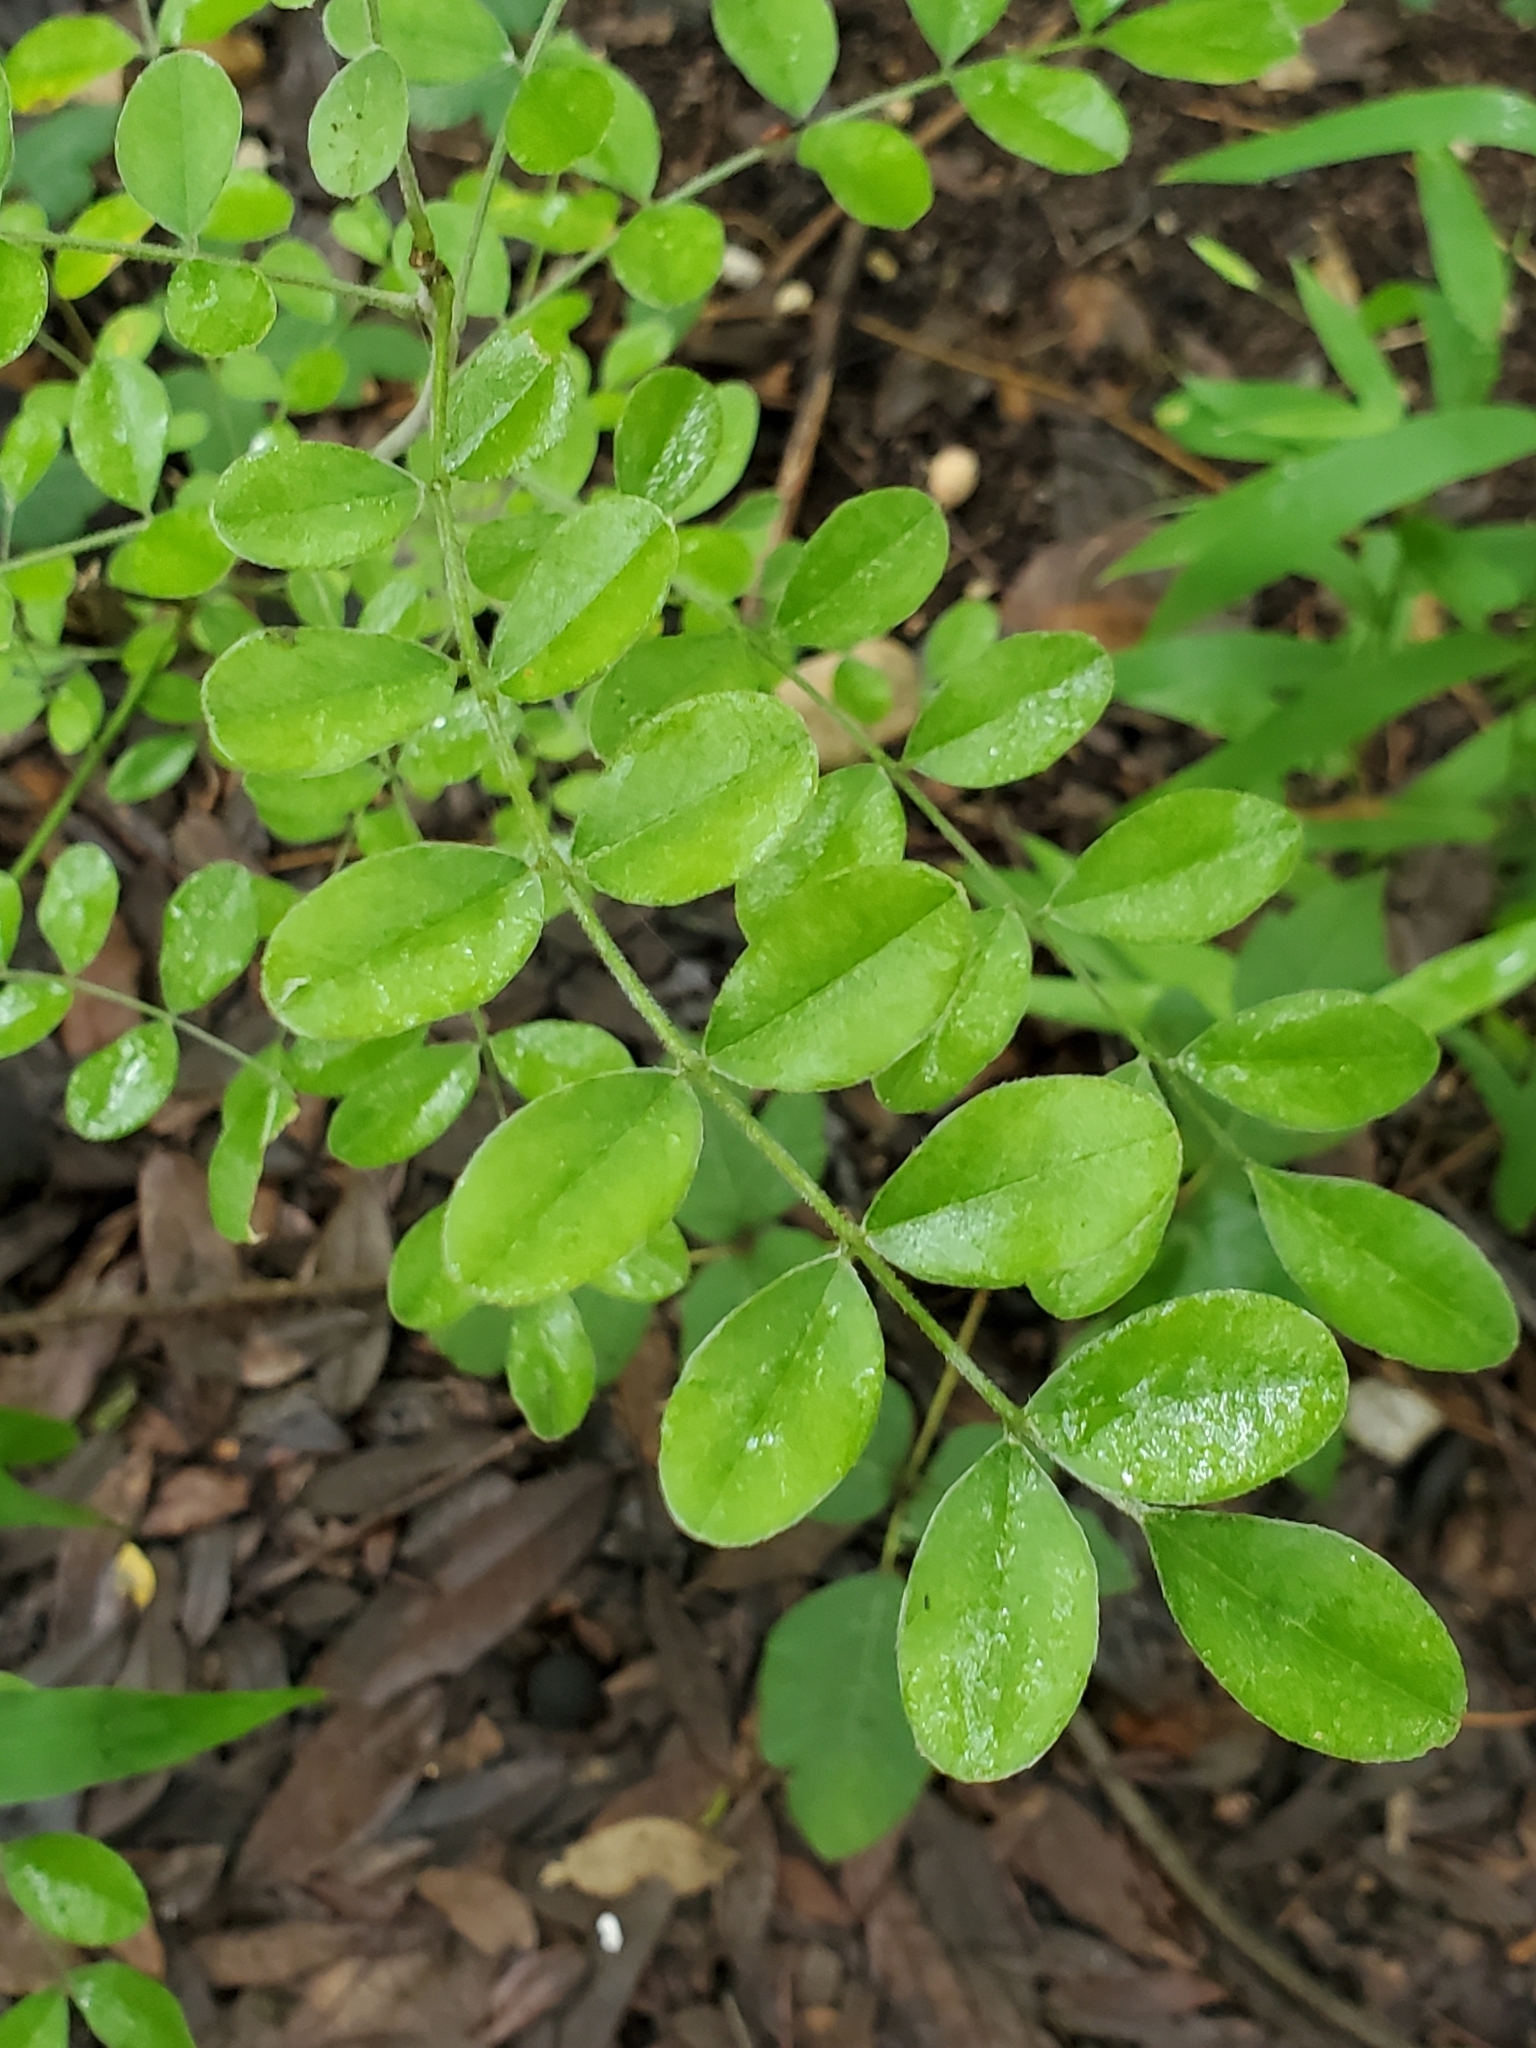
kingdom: Plantae
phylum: Tracheophyta
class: Magnoliopsida
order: Fabales
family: Fabaceae
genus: Styphnolobium
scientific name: Styphnolobium affine
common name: Texas sophora
